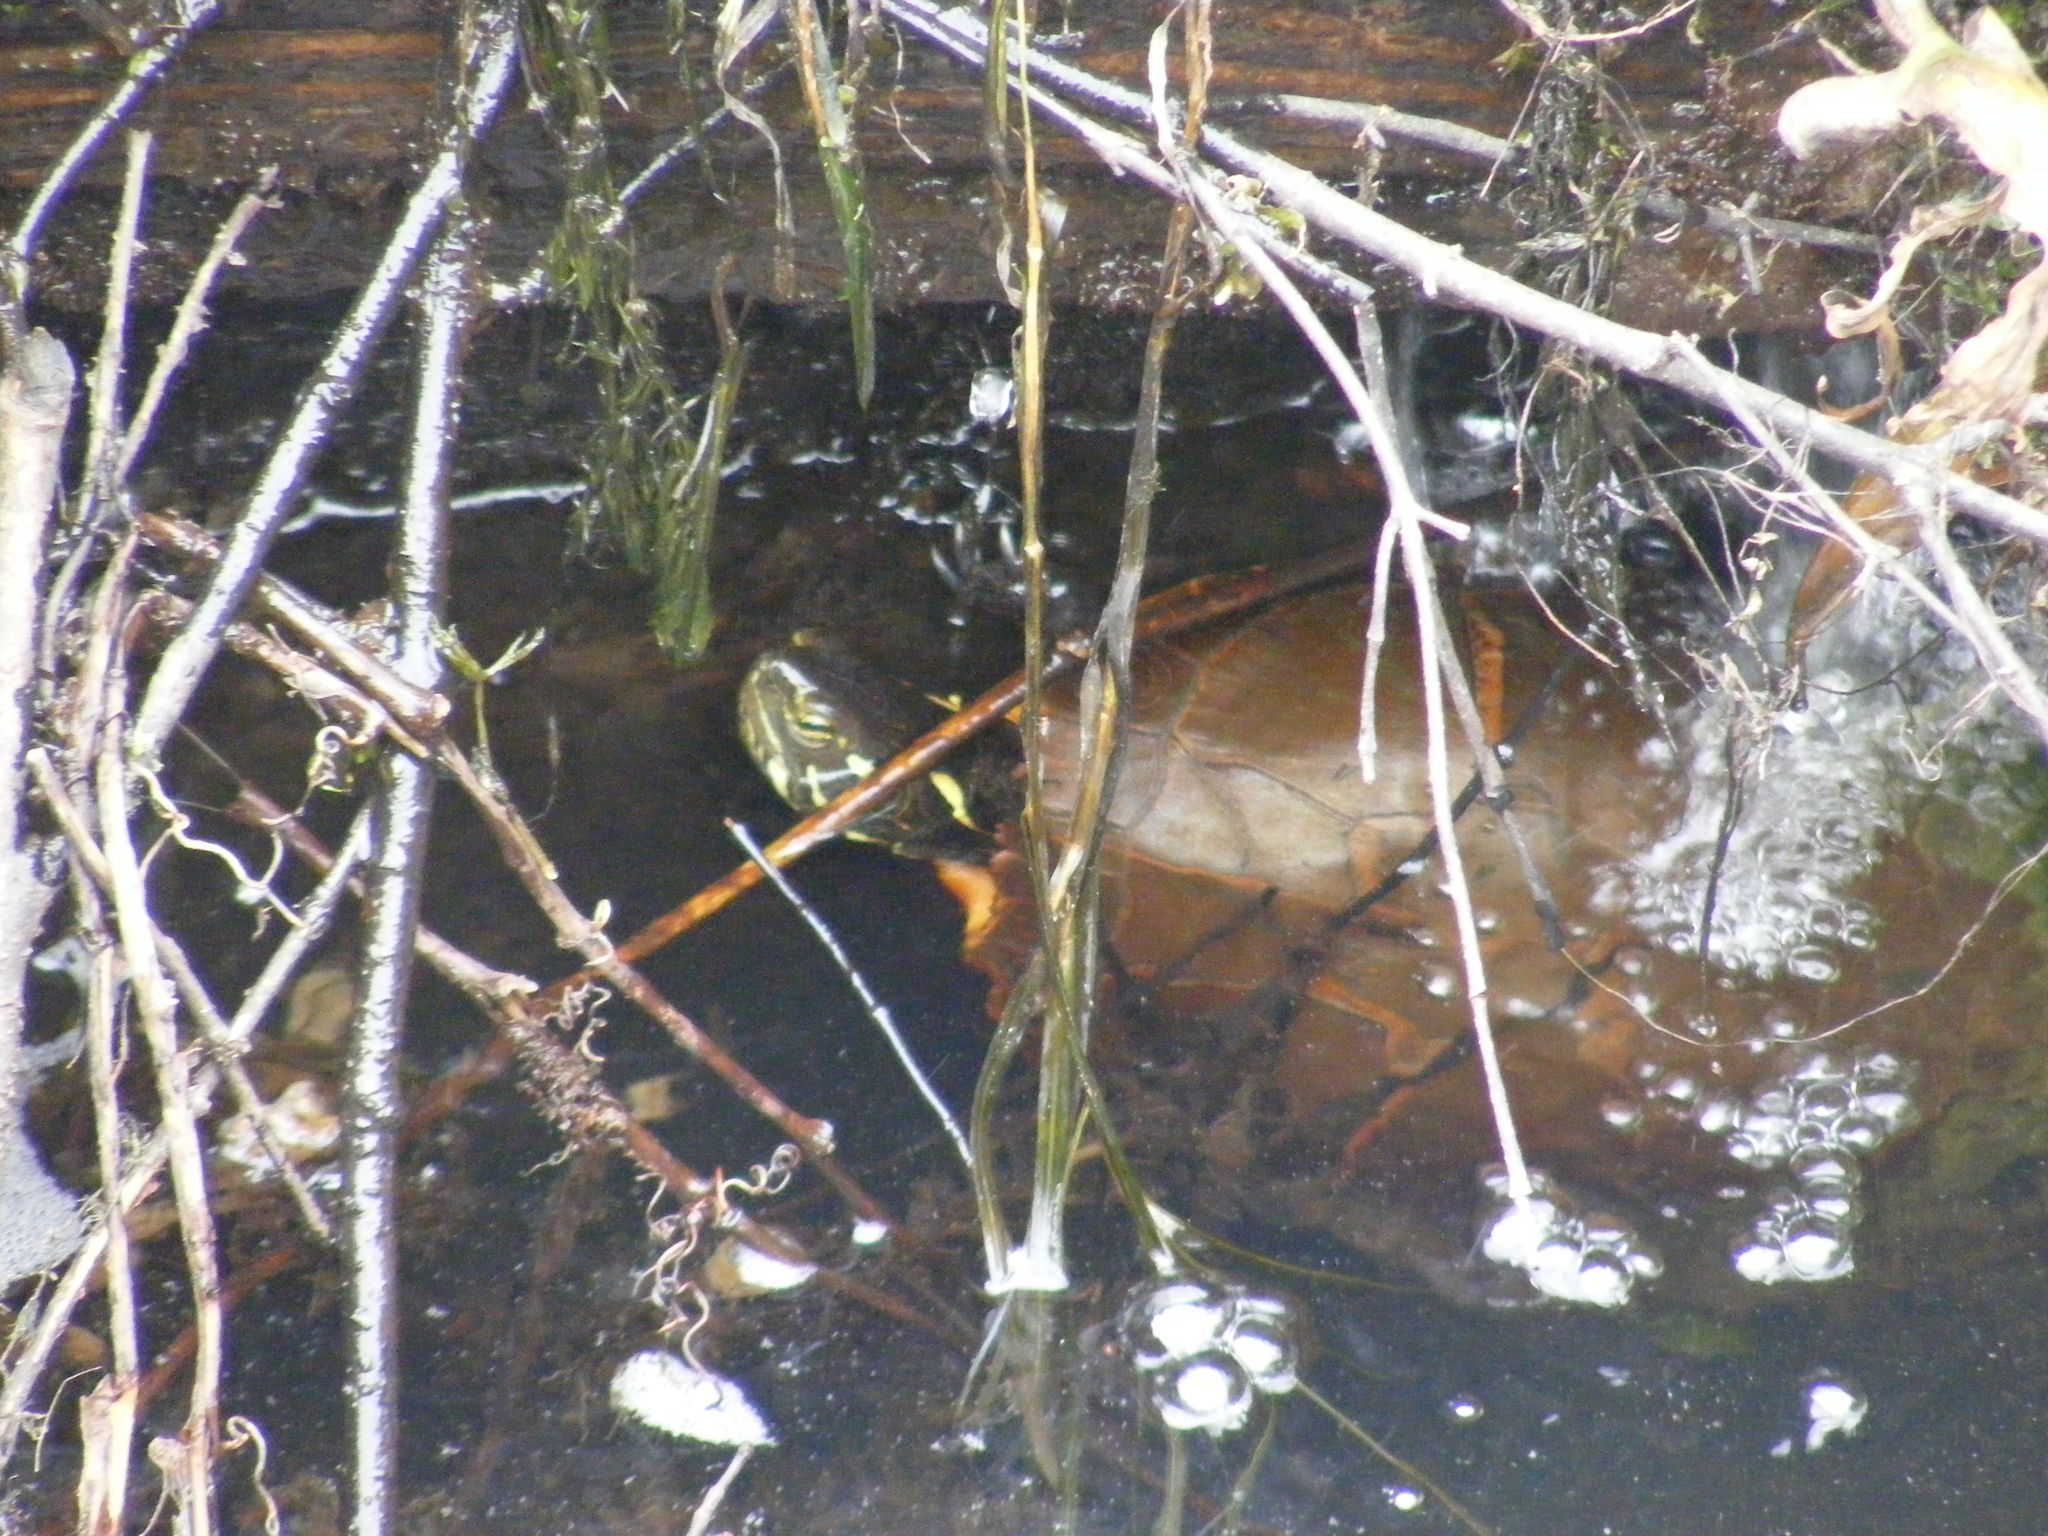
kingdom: Animalia
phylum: Chordata
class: Testudines
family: Emydidae
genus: Chrysemys
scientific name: Chrysemys picta
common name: Painted turtle
